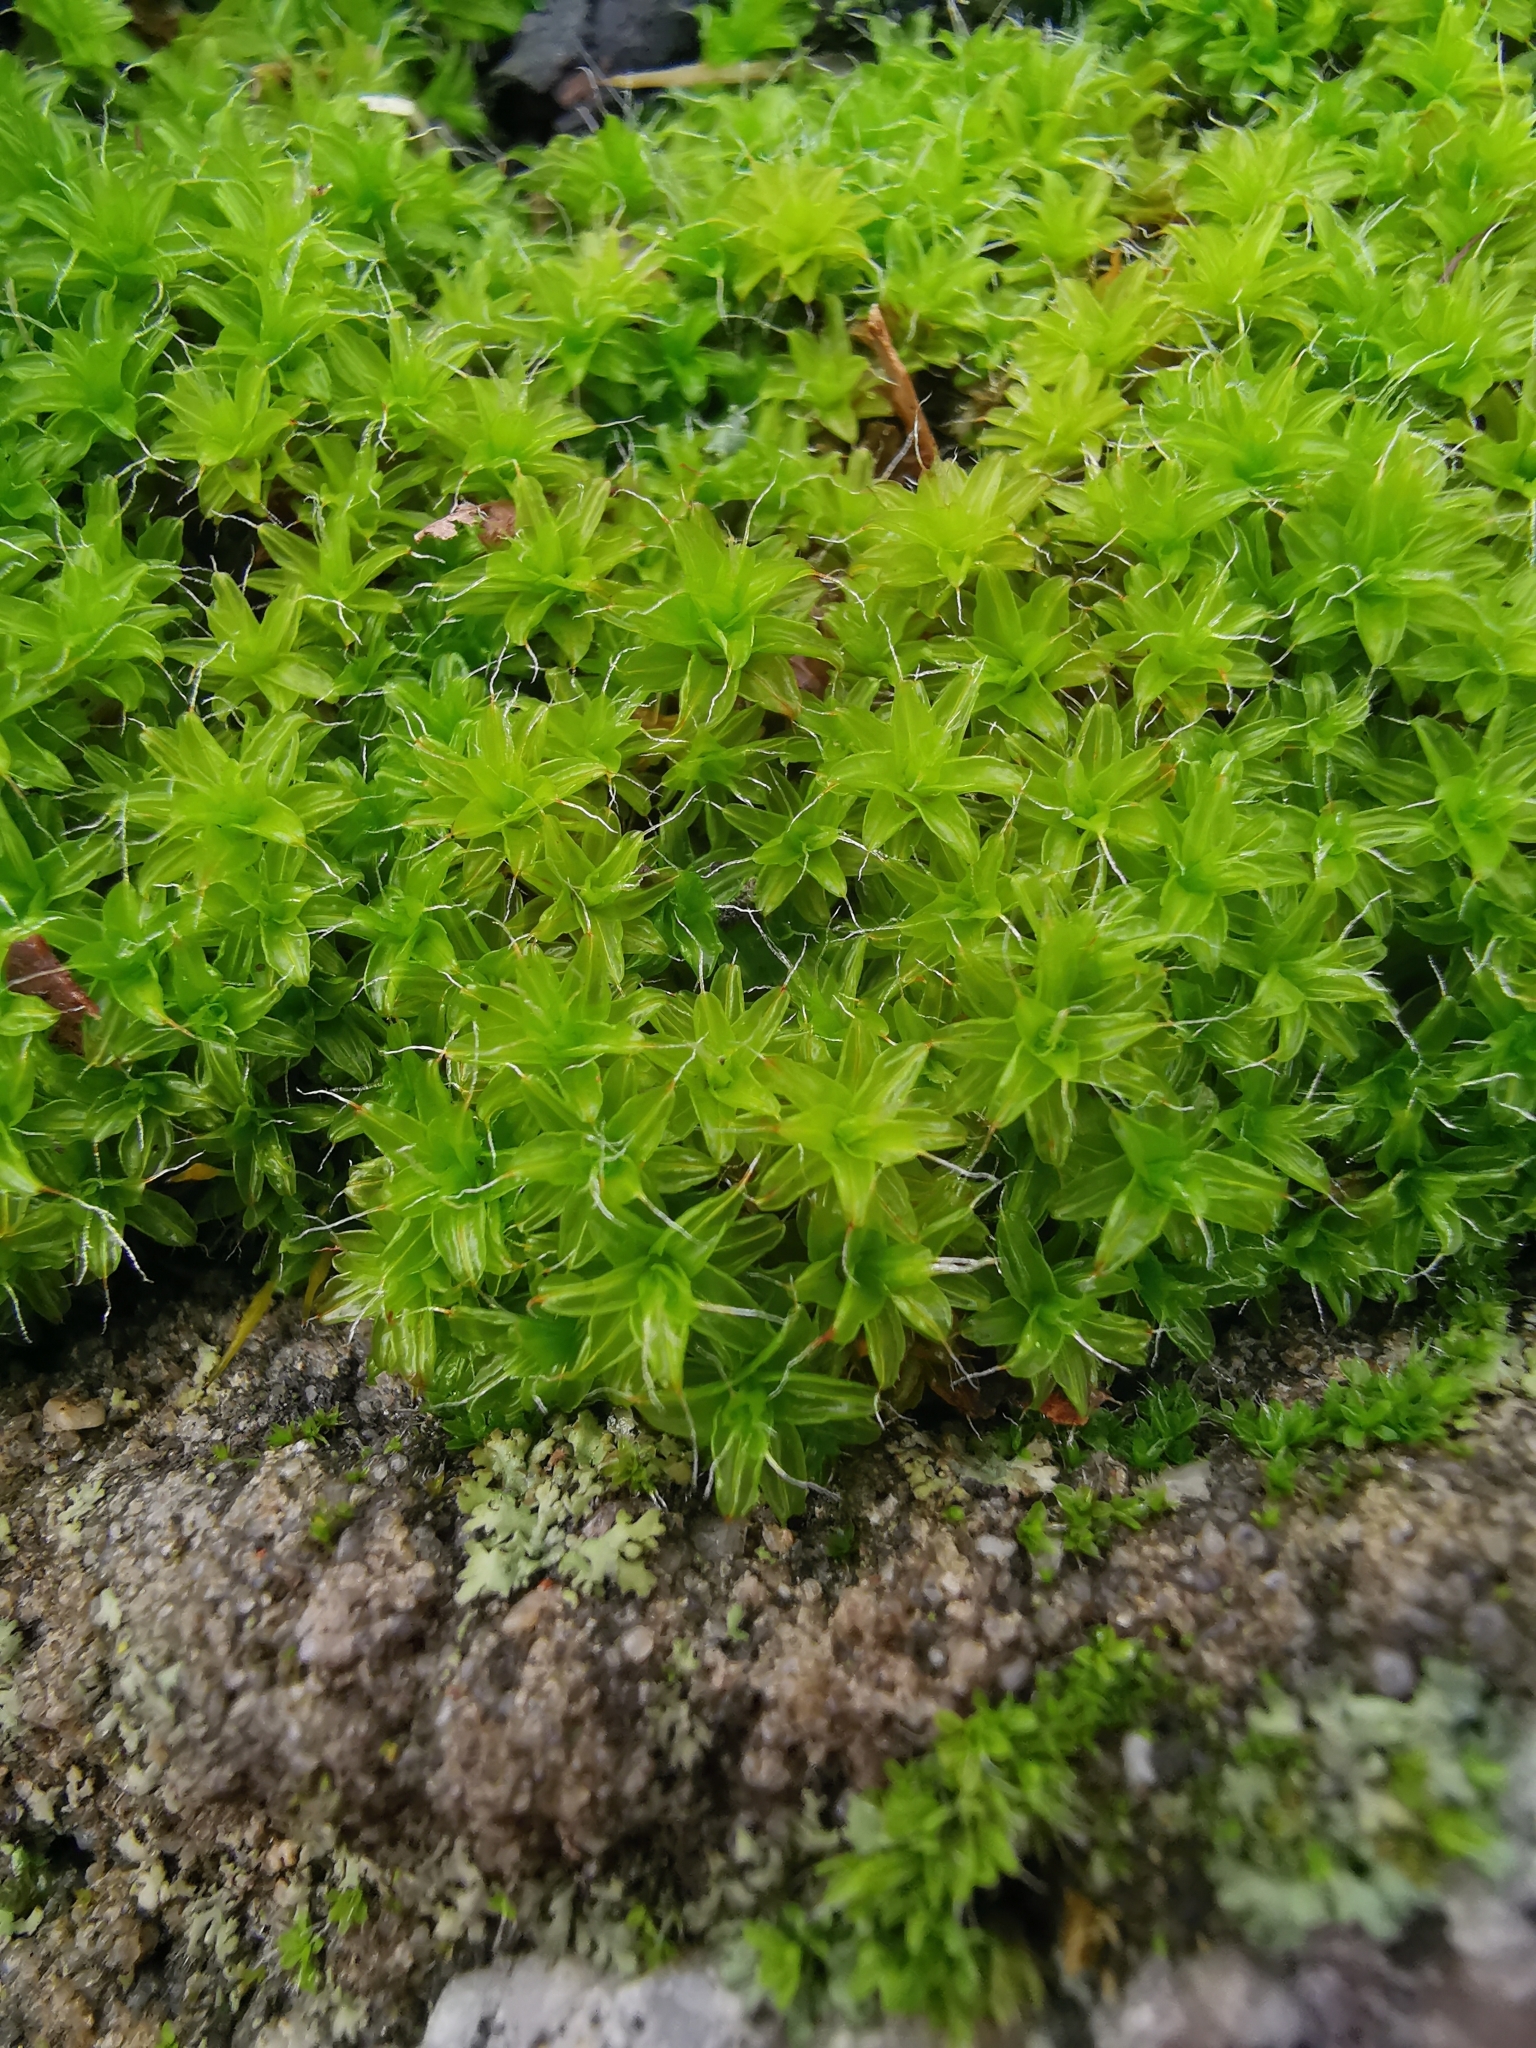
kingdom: Plantae
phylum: Bryophyta
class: Bryopsida
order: Pottiales
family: Pottiaceae
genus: Syntrichia
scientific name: Syntrichia ruralis
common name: Sidewalk screw moss
